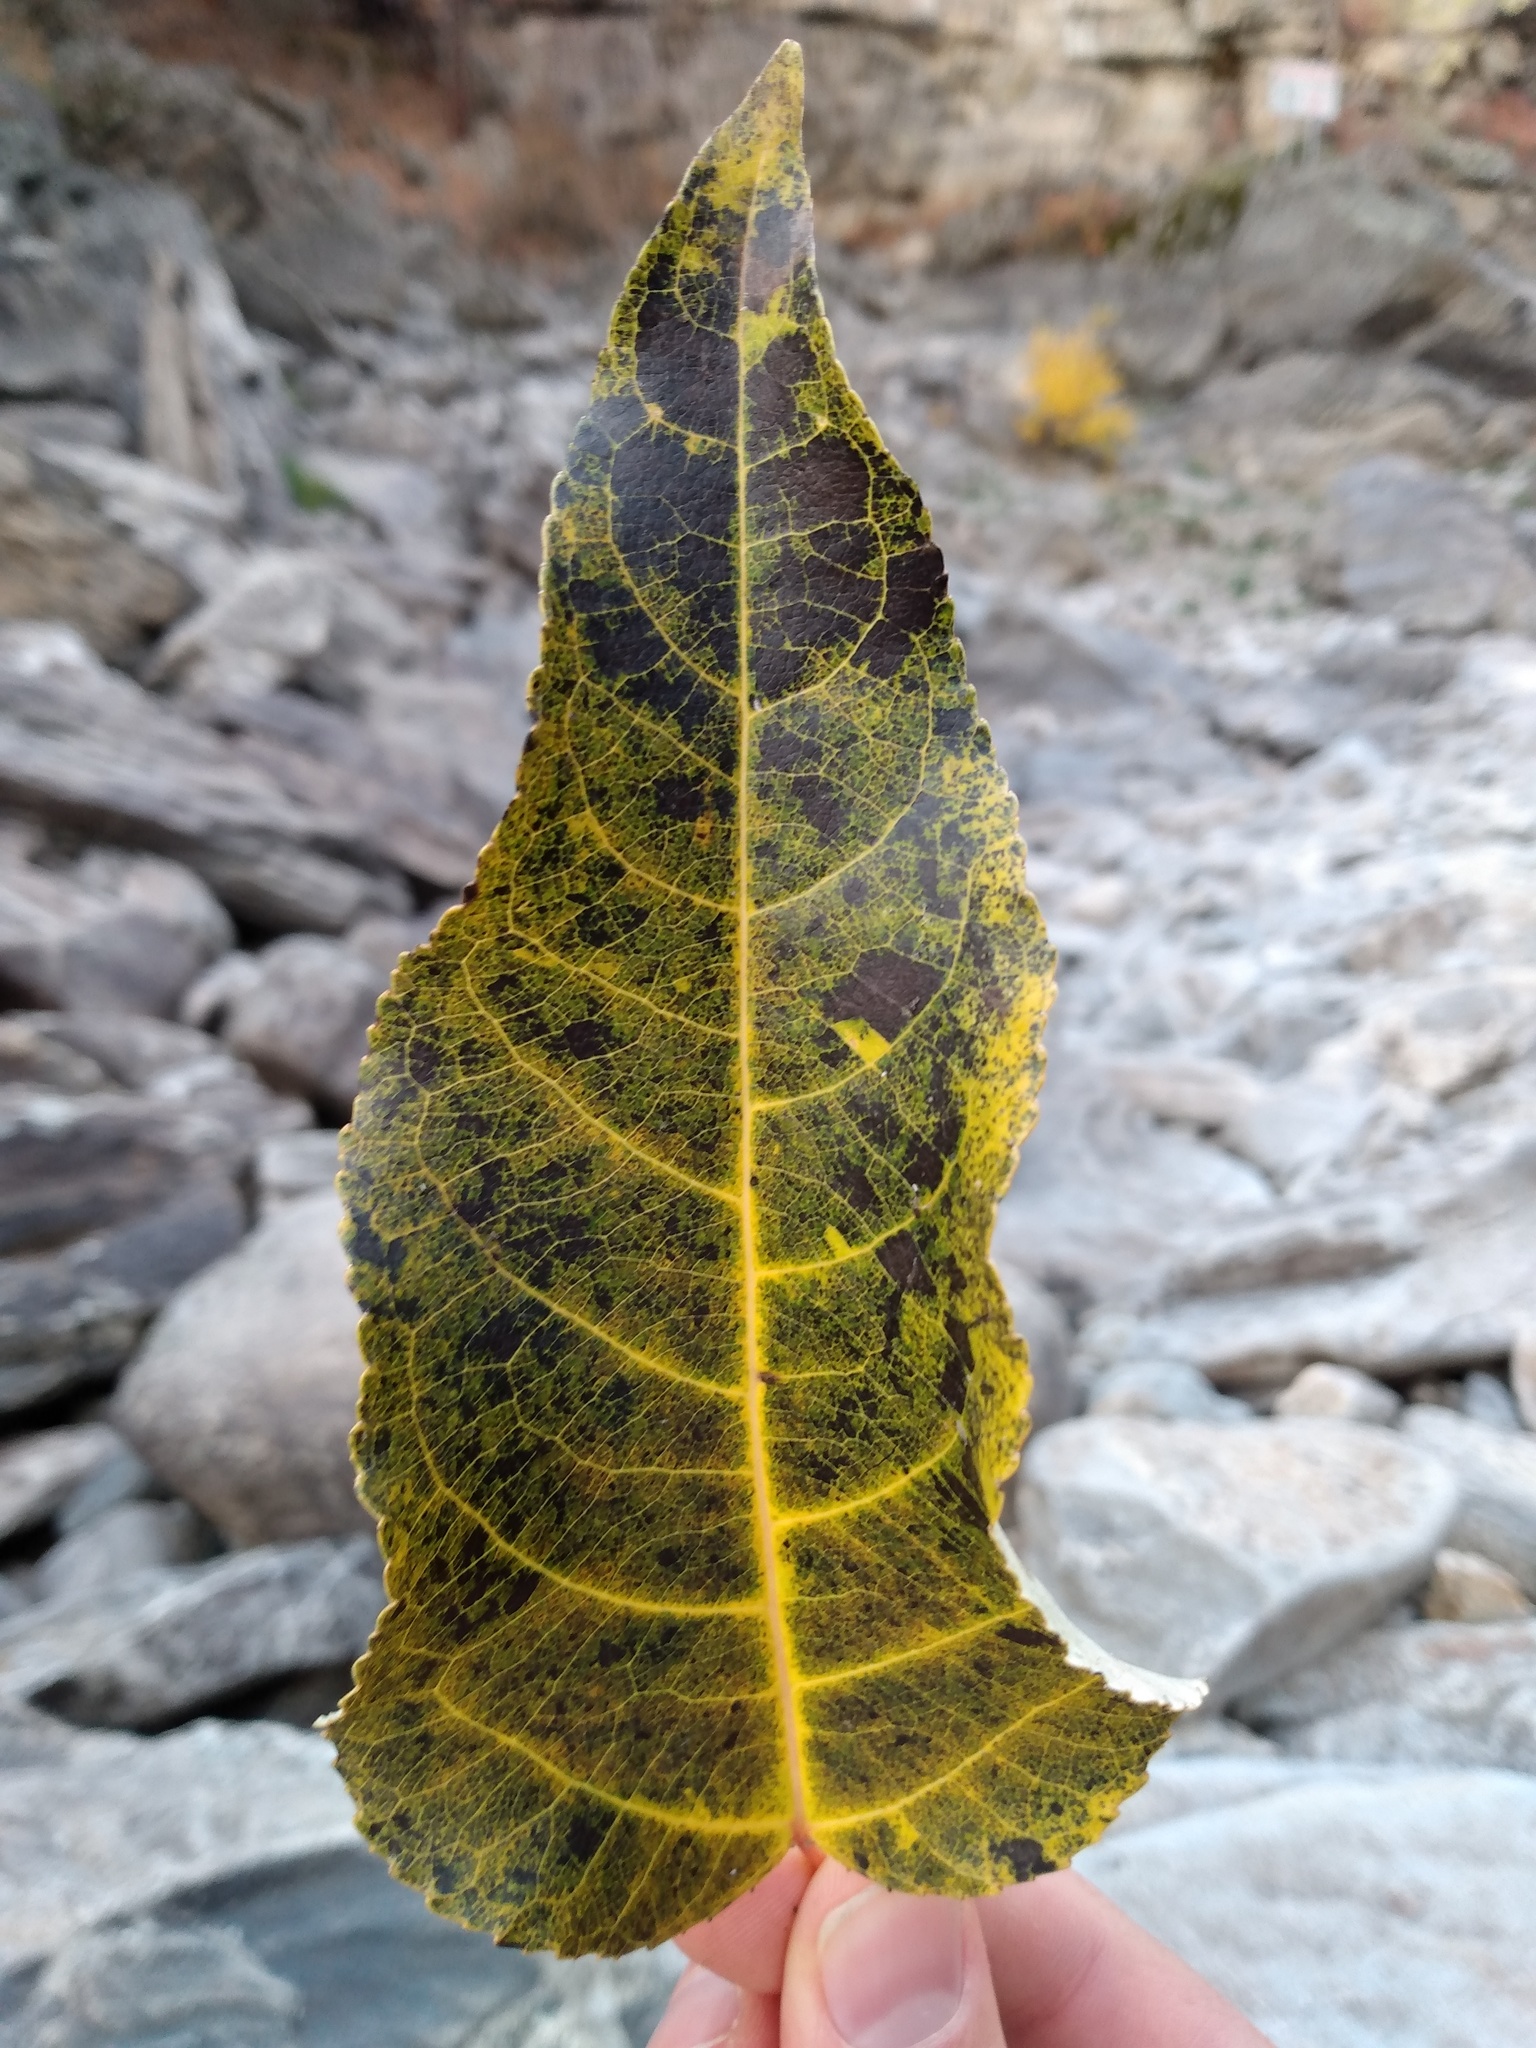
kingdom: Plantae
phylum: Tracheophyta
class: Magnoliopsida
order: Malpighiales
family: Salicaceae
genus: Populus
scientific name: Populus trichocarpa
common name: Black cottonwood
